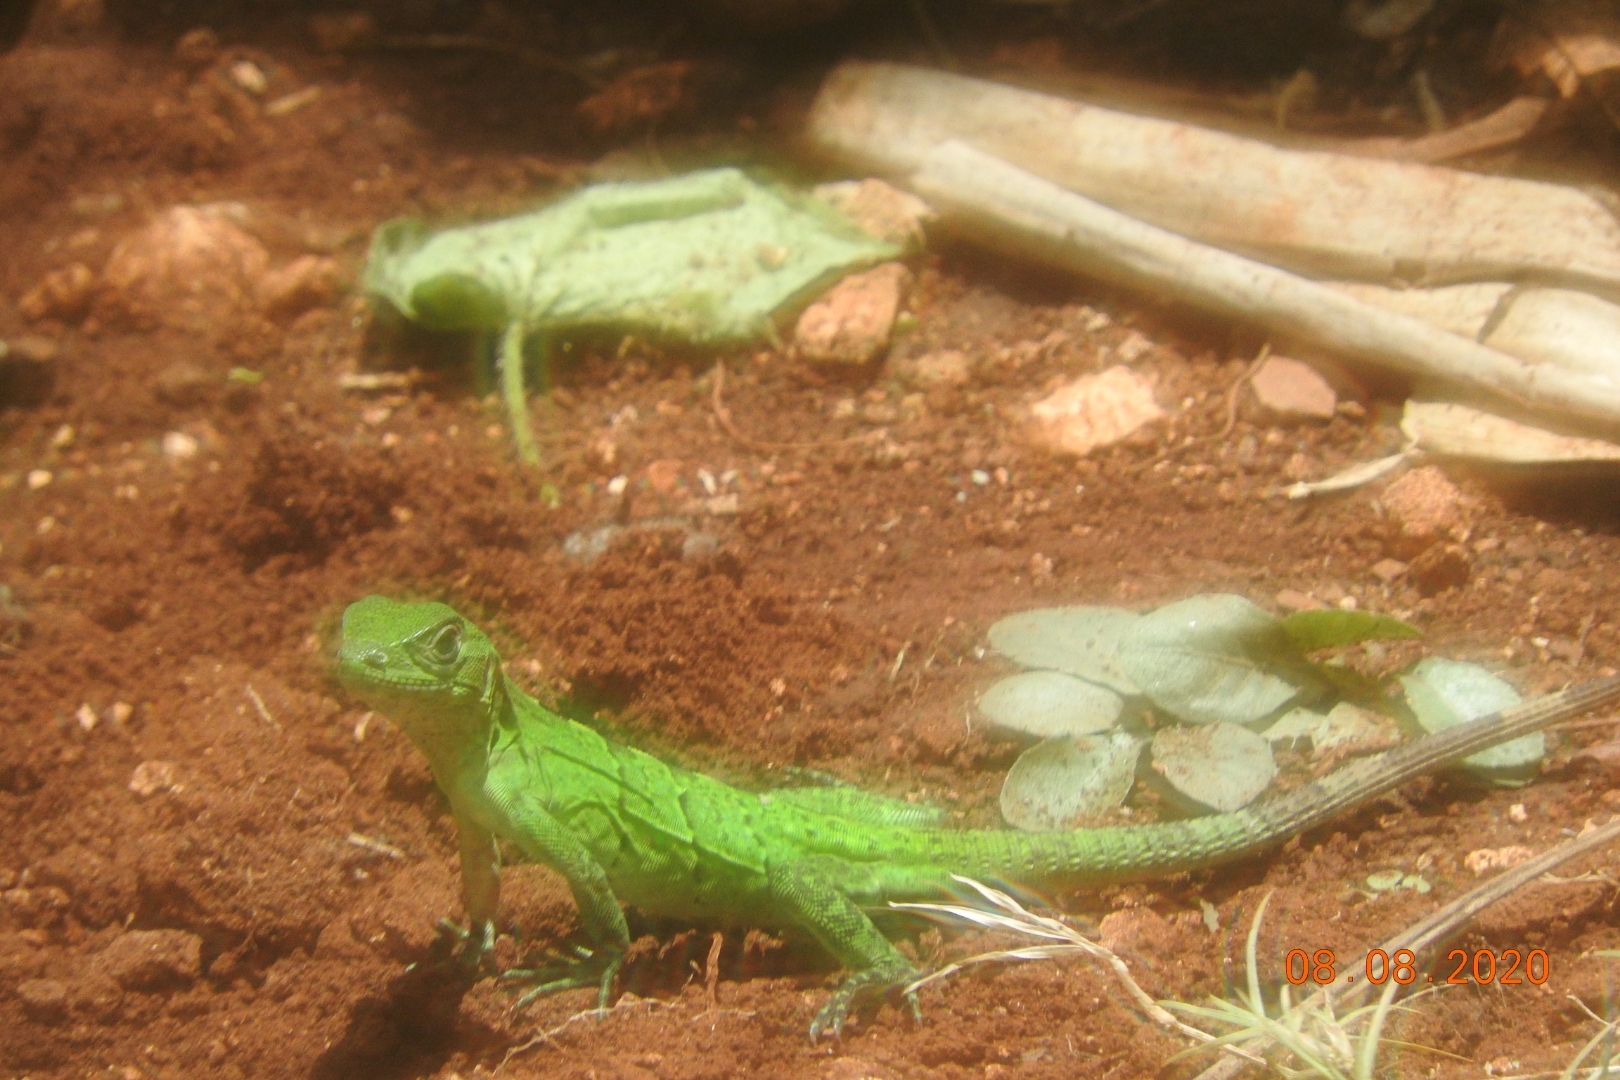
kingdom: Animalia
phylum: Chordata
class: Squamata
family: Iguanidae
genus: Ctenosaura
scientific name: Ctenosaura similis
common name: Black spiny-tailed iguana
